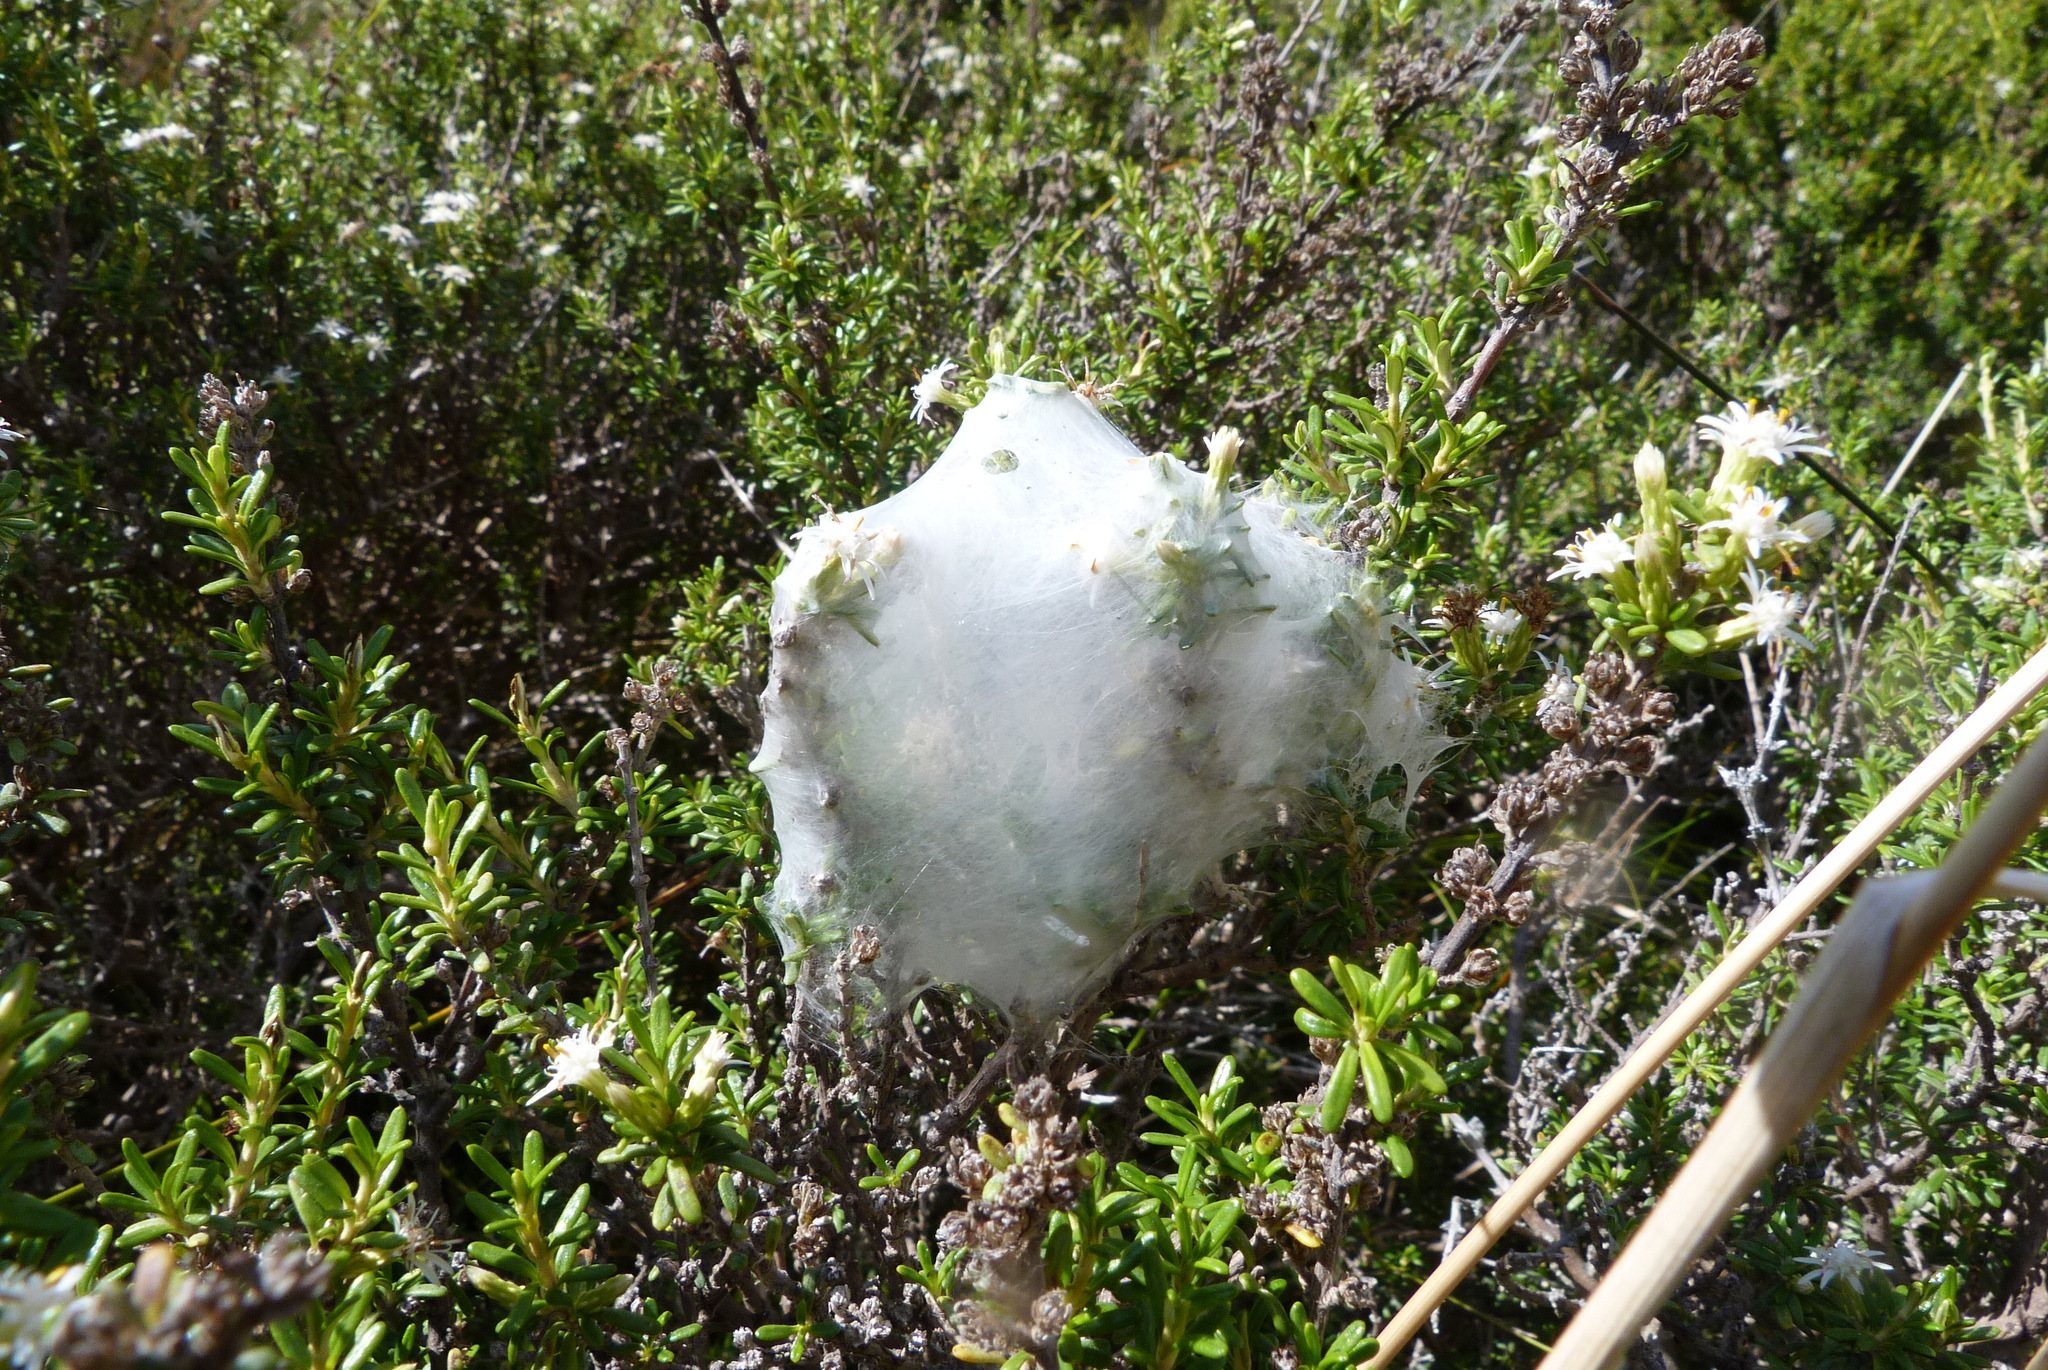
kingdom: Animalia
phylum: Arthropoda
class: Arachnida
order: Araneae
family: Pisauridae
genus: Dolomedes
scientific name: Dolomedes minor
